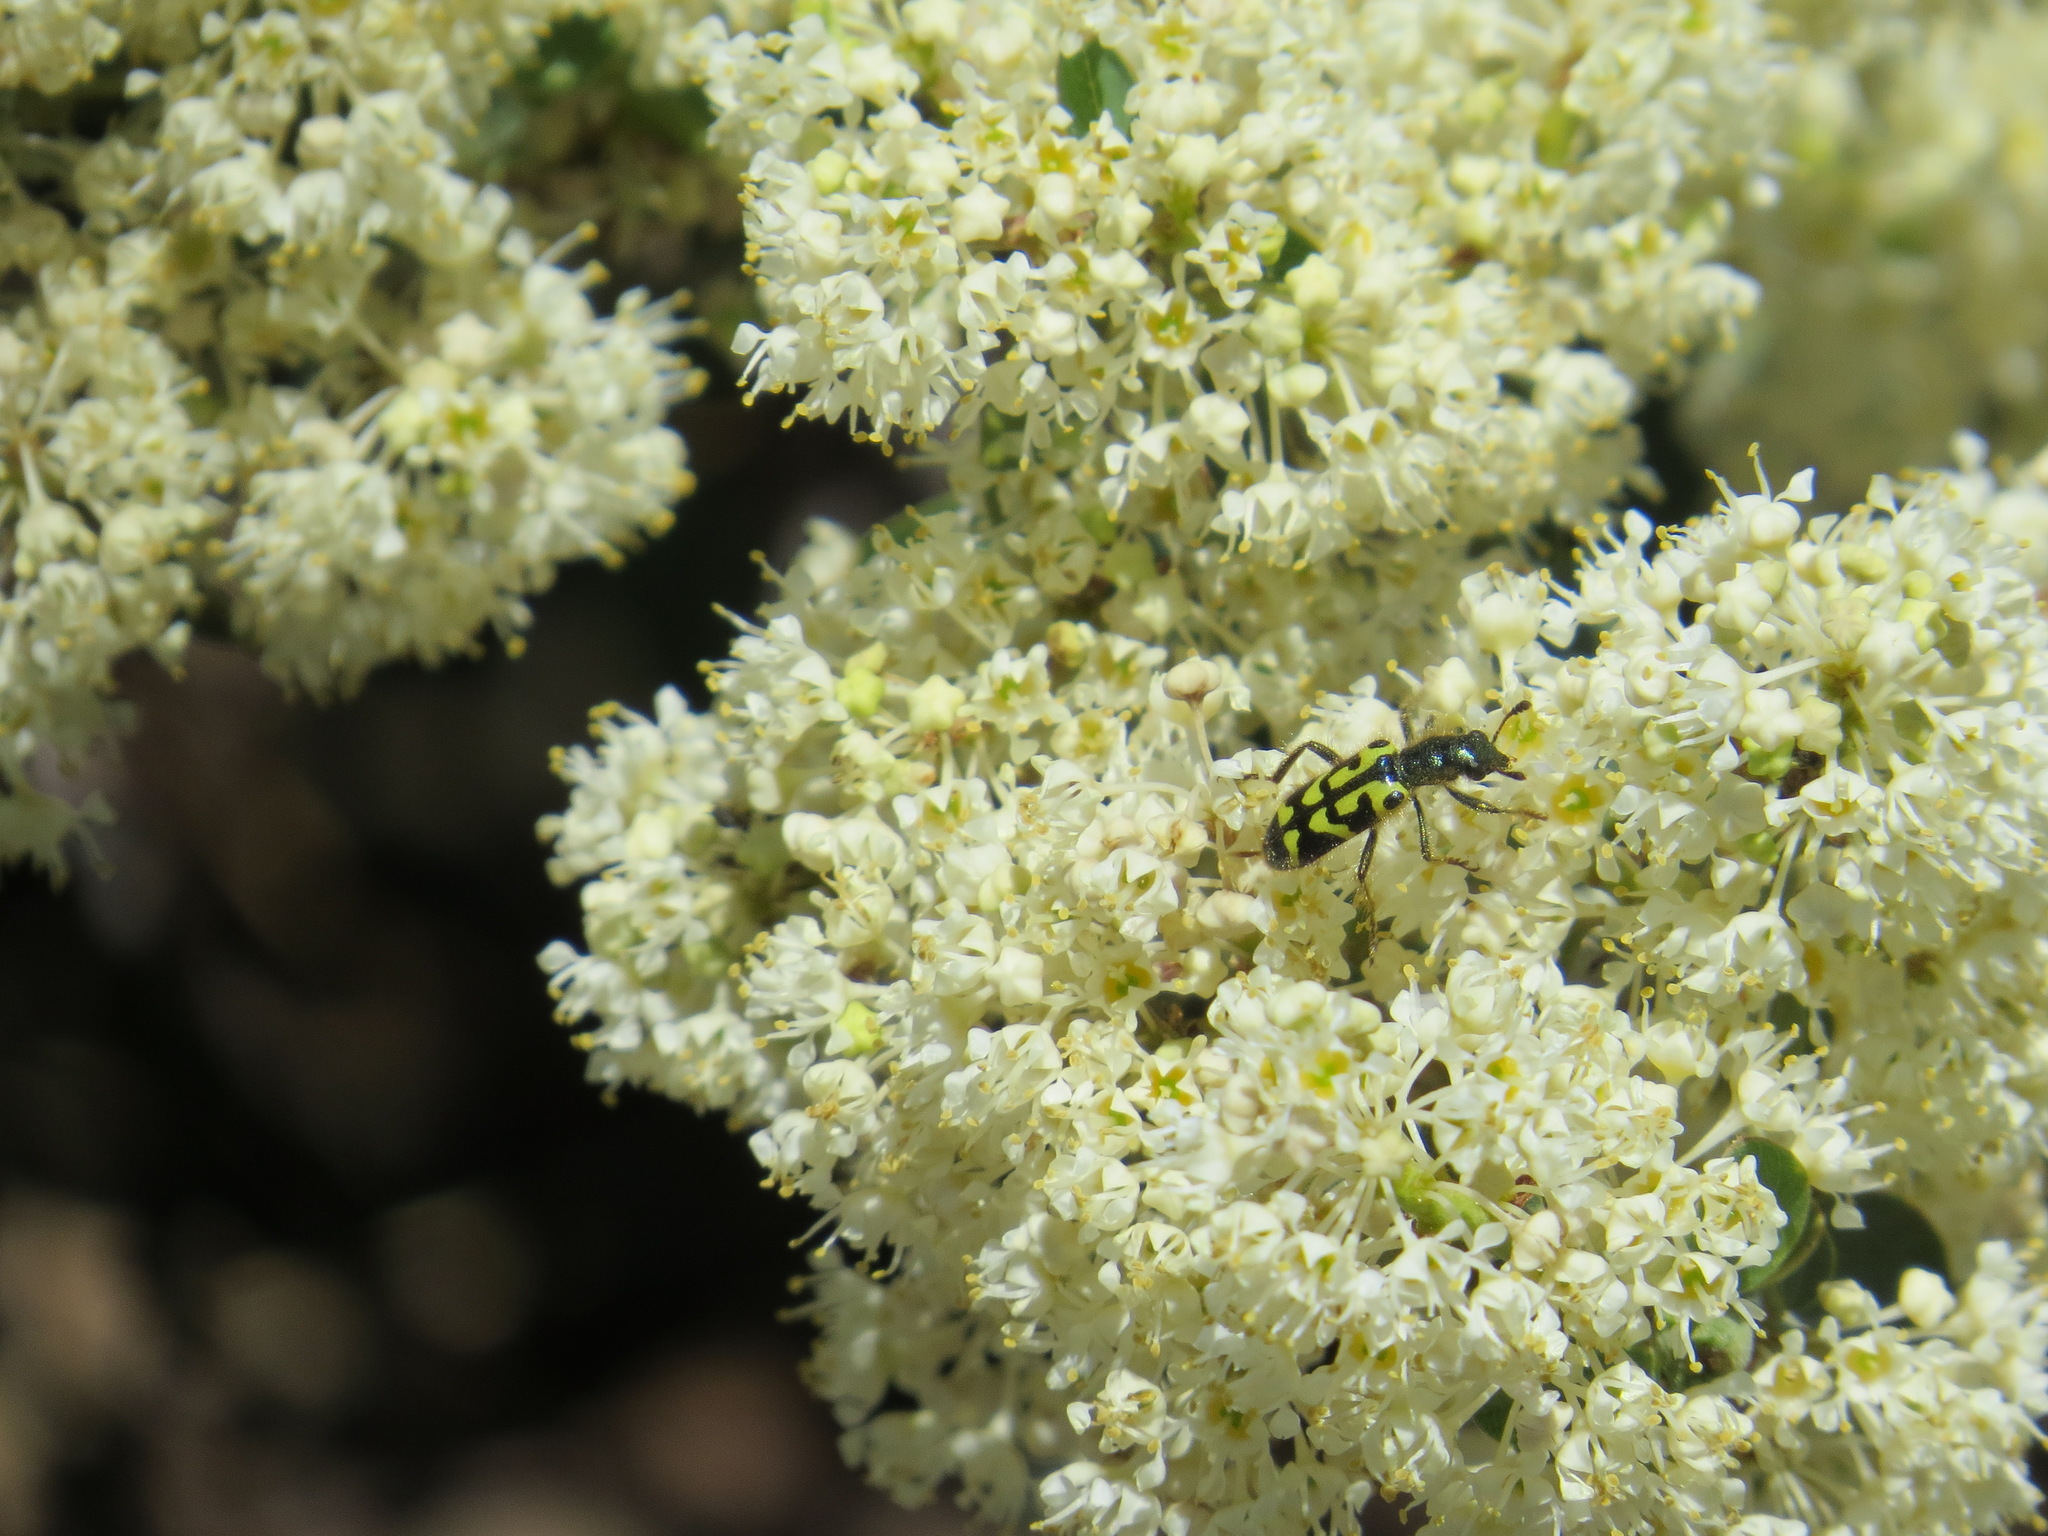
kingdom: Animalia
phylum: Arthropoda
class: Insecta
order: Coleoptera
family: Cleridae
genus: Trichodes
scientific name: Trichodes ornatus
